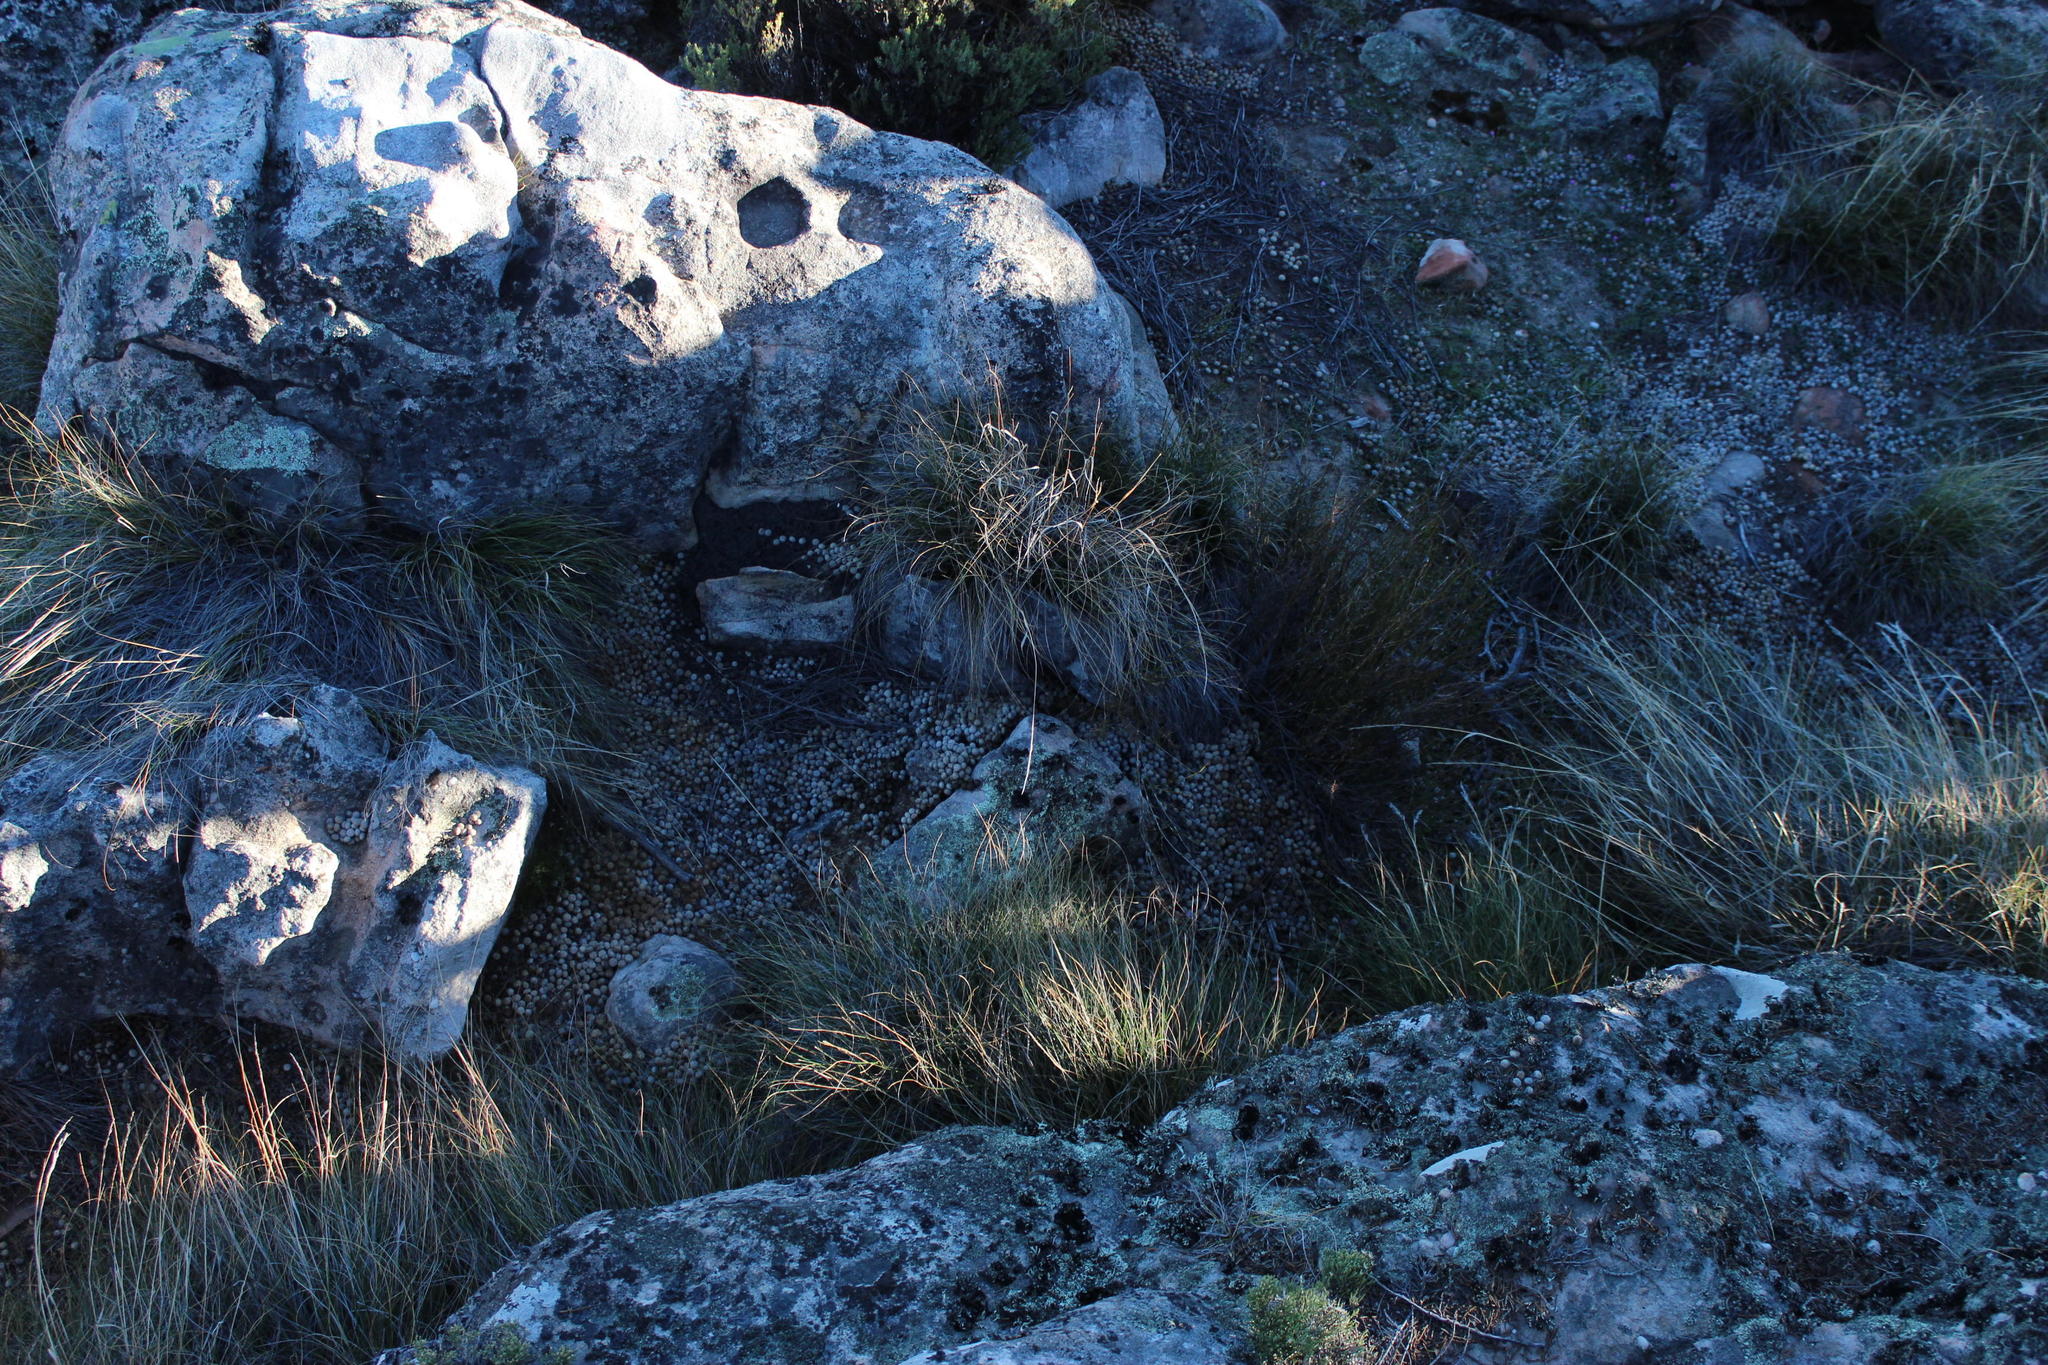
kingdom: Animalia
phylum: Chordata
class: Mammalia
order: Lagomorpha
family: Leporidae
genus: Pronolagus
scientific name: Pronolagus saundersiae
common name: Hewitt's red rock hare
